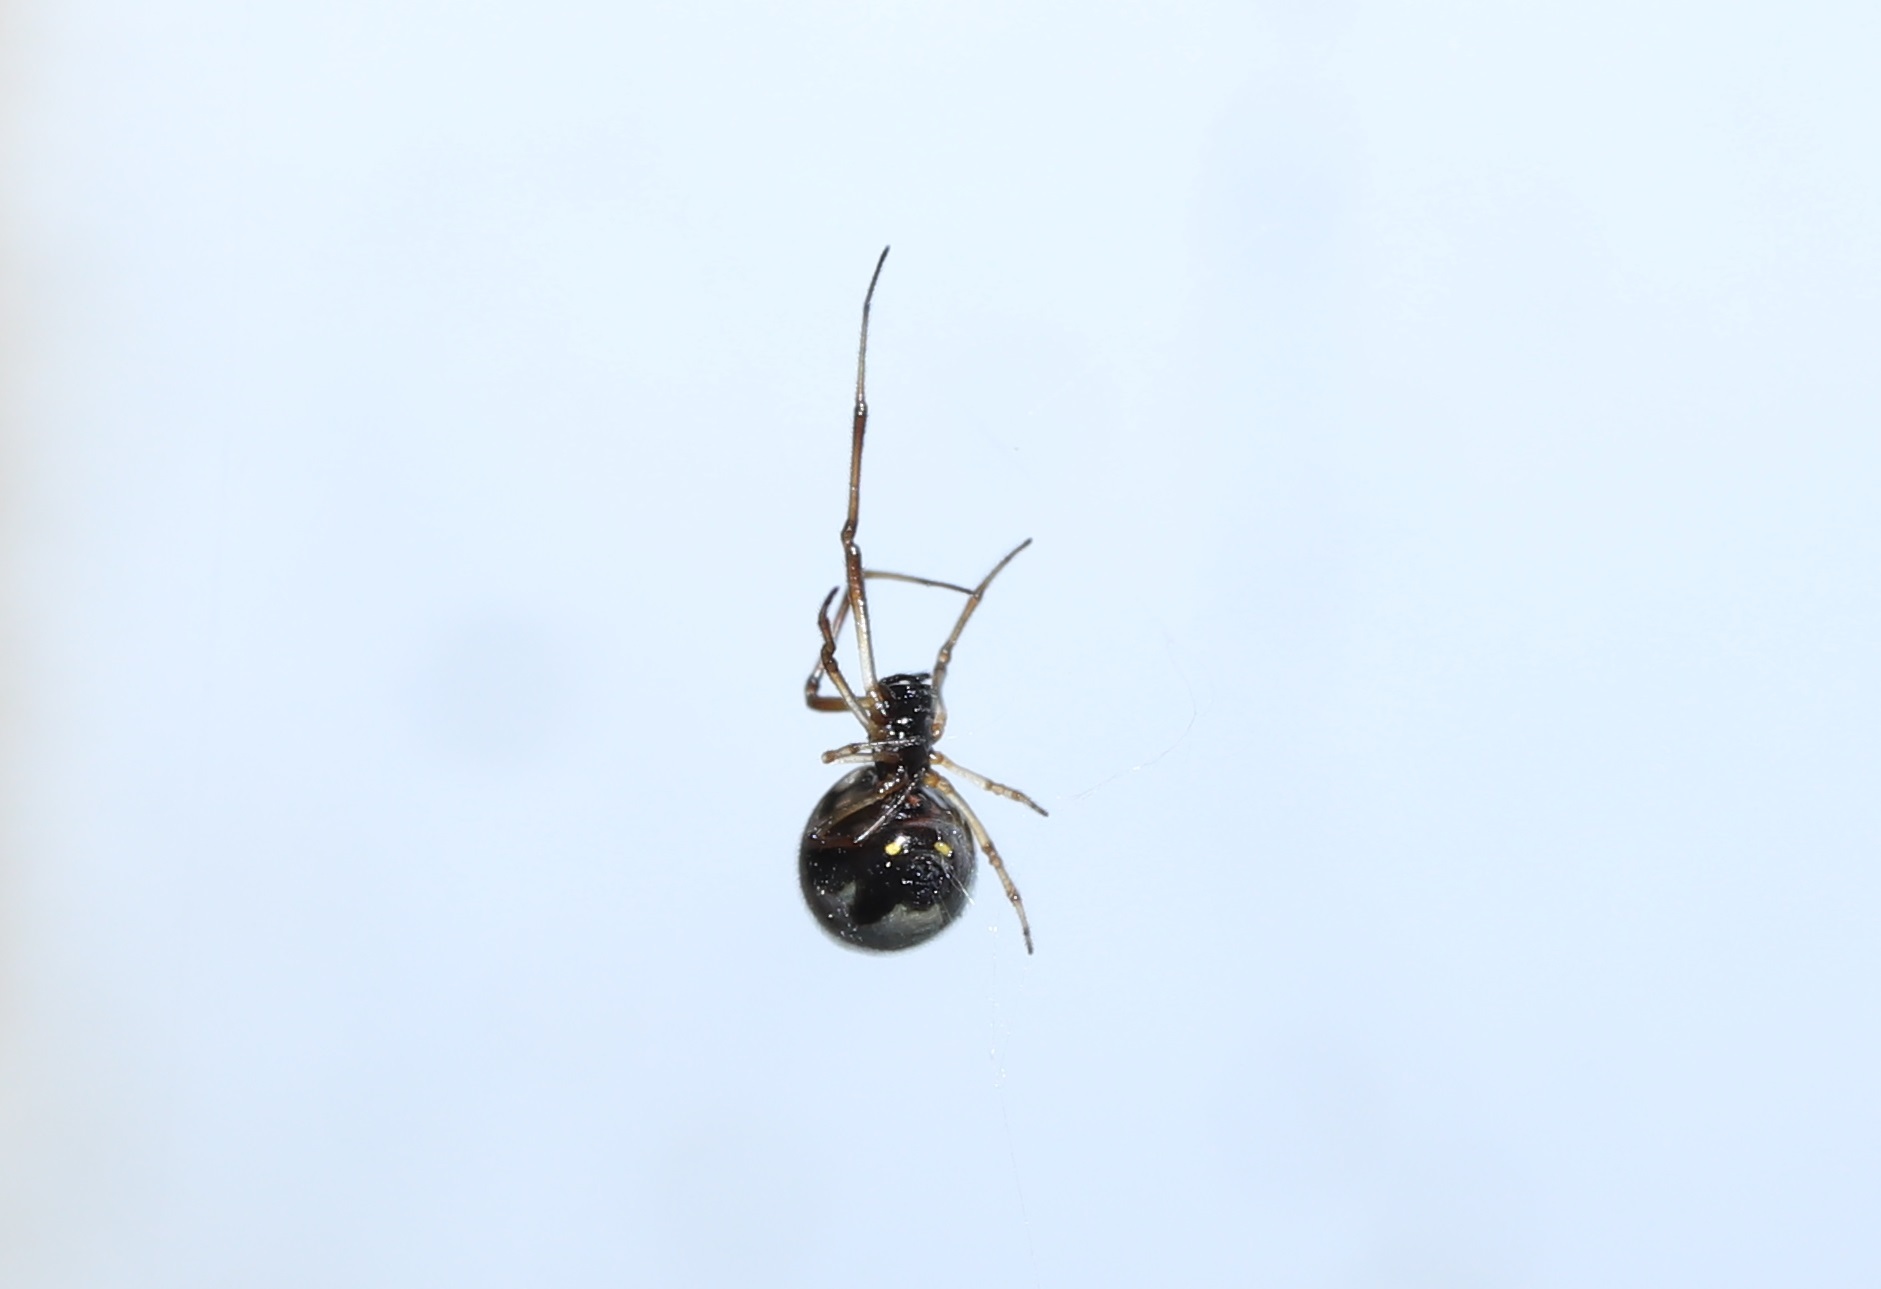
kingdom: Animalia
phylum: Arthropoda
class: Arachnida
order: Araneae
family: Theridiidae
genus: Argyrodes
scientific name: Argyrodes bonadea
